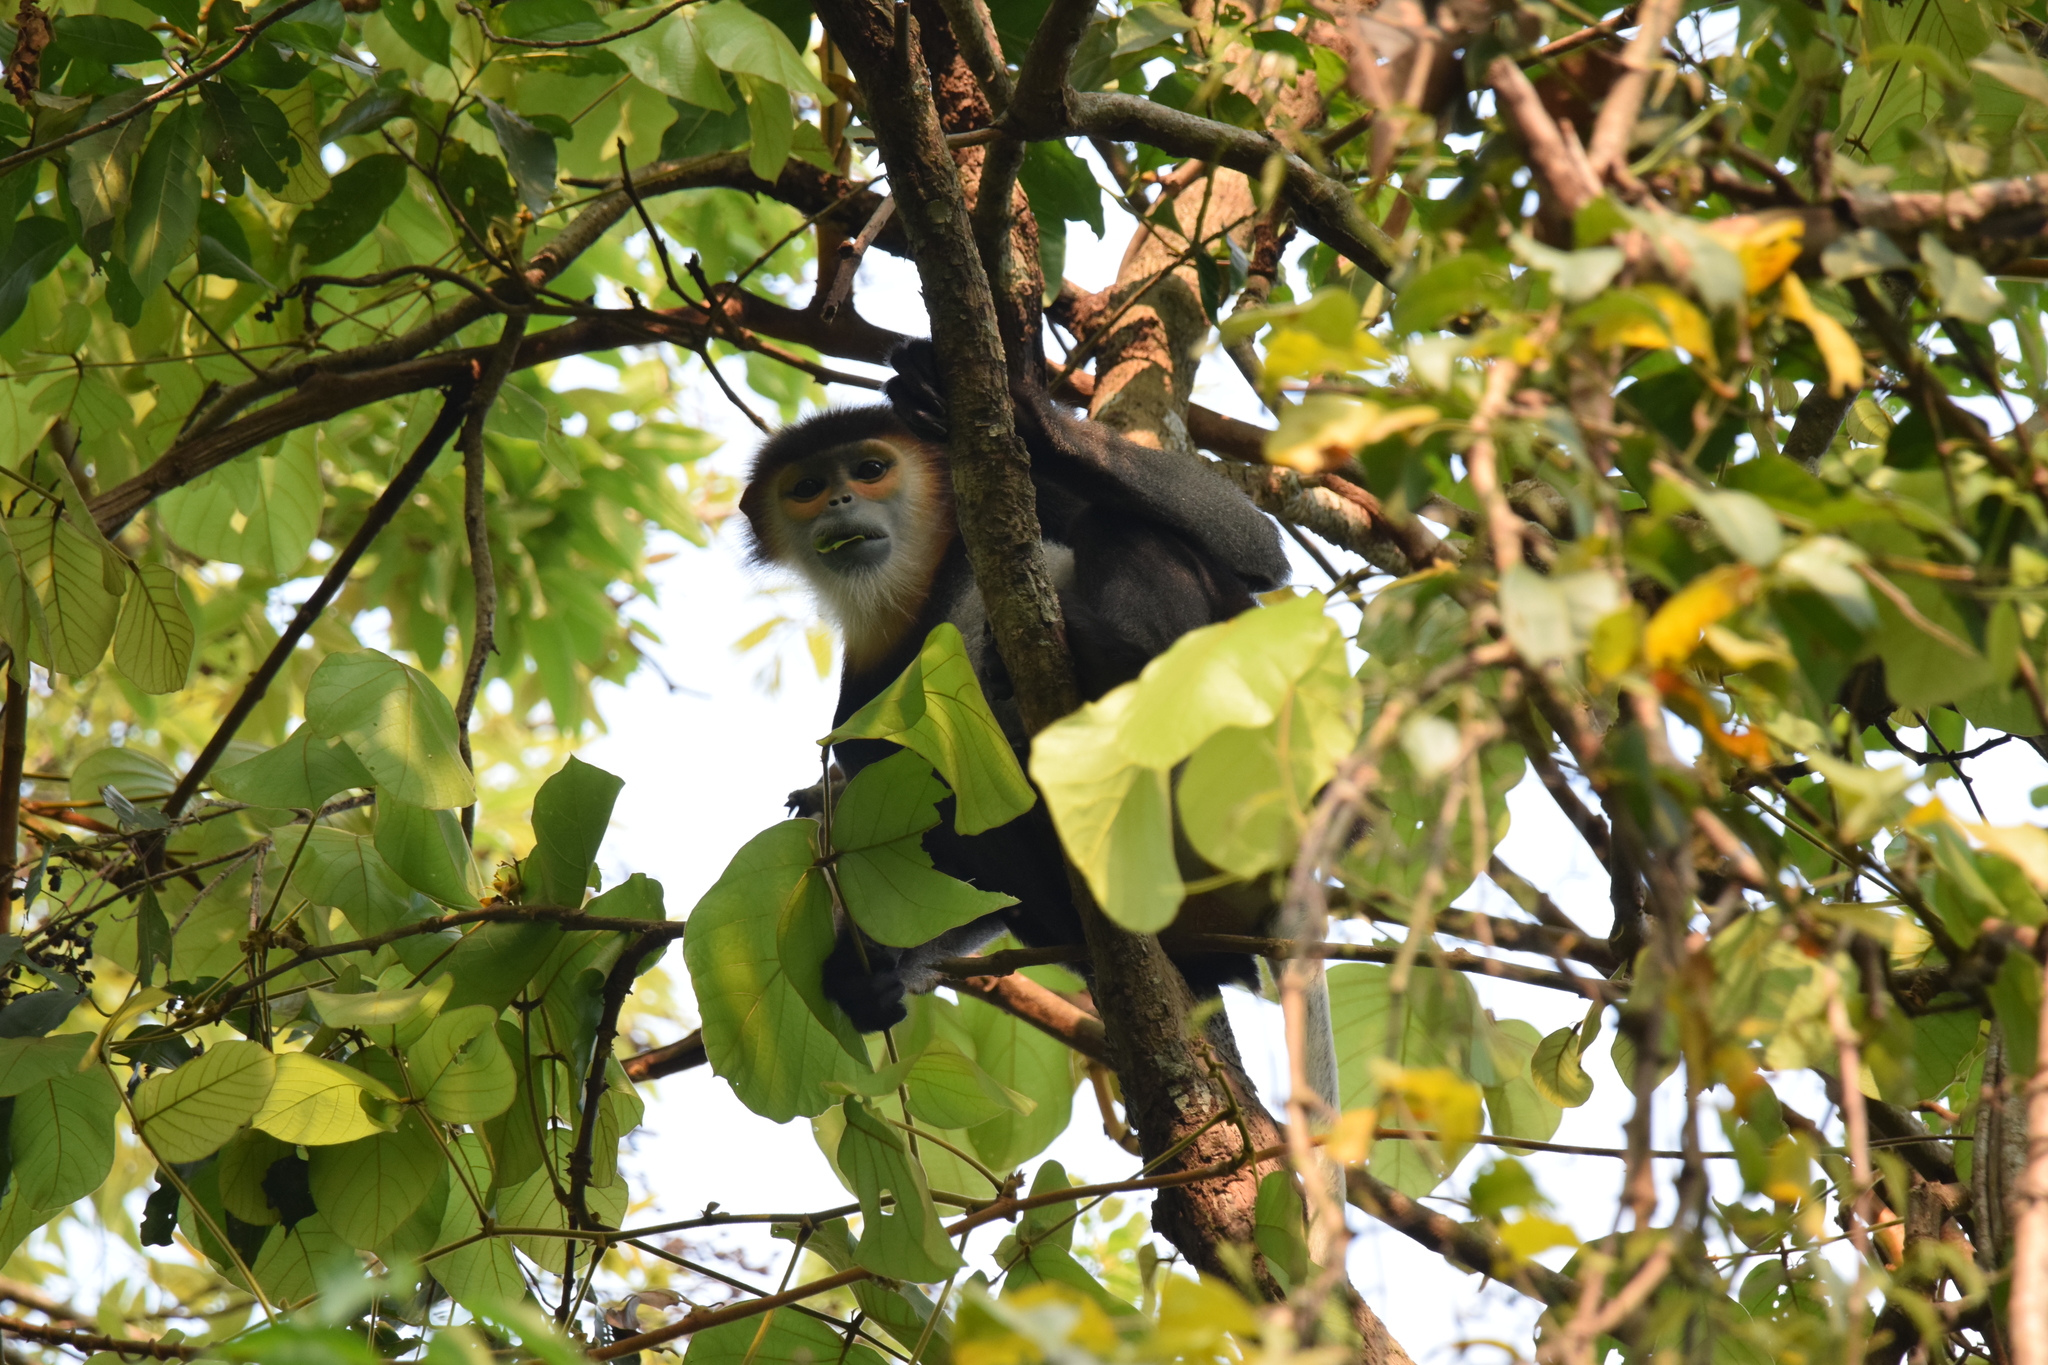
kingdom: Animalia
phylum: Chordata
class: Mammalia
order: Primates
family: Cercopithecidae
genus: Pygathrix
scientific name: Pygathrix nigripes
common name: Black-shanked douc
